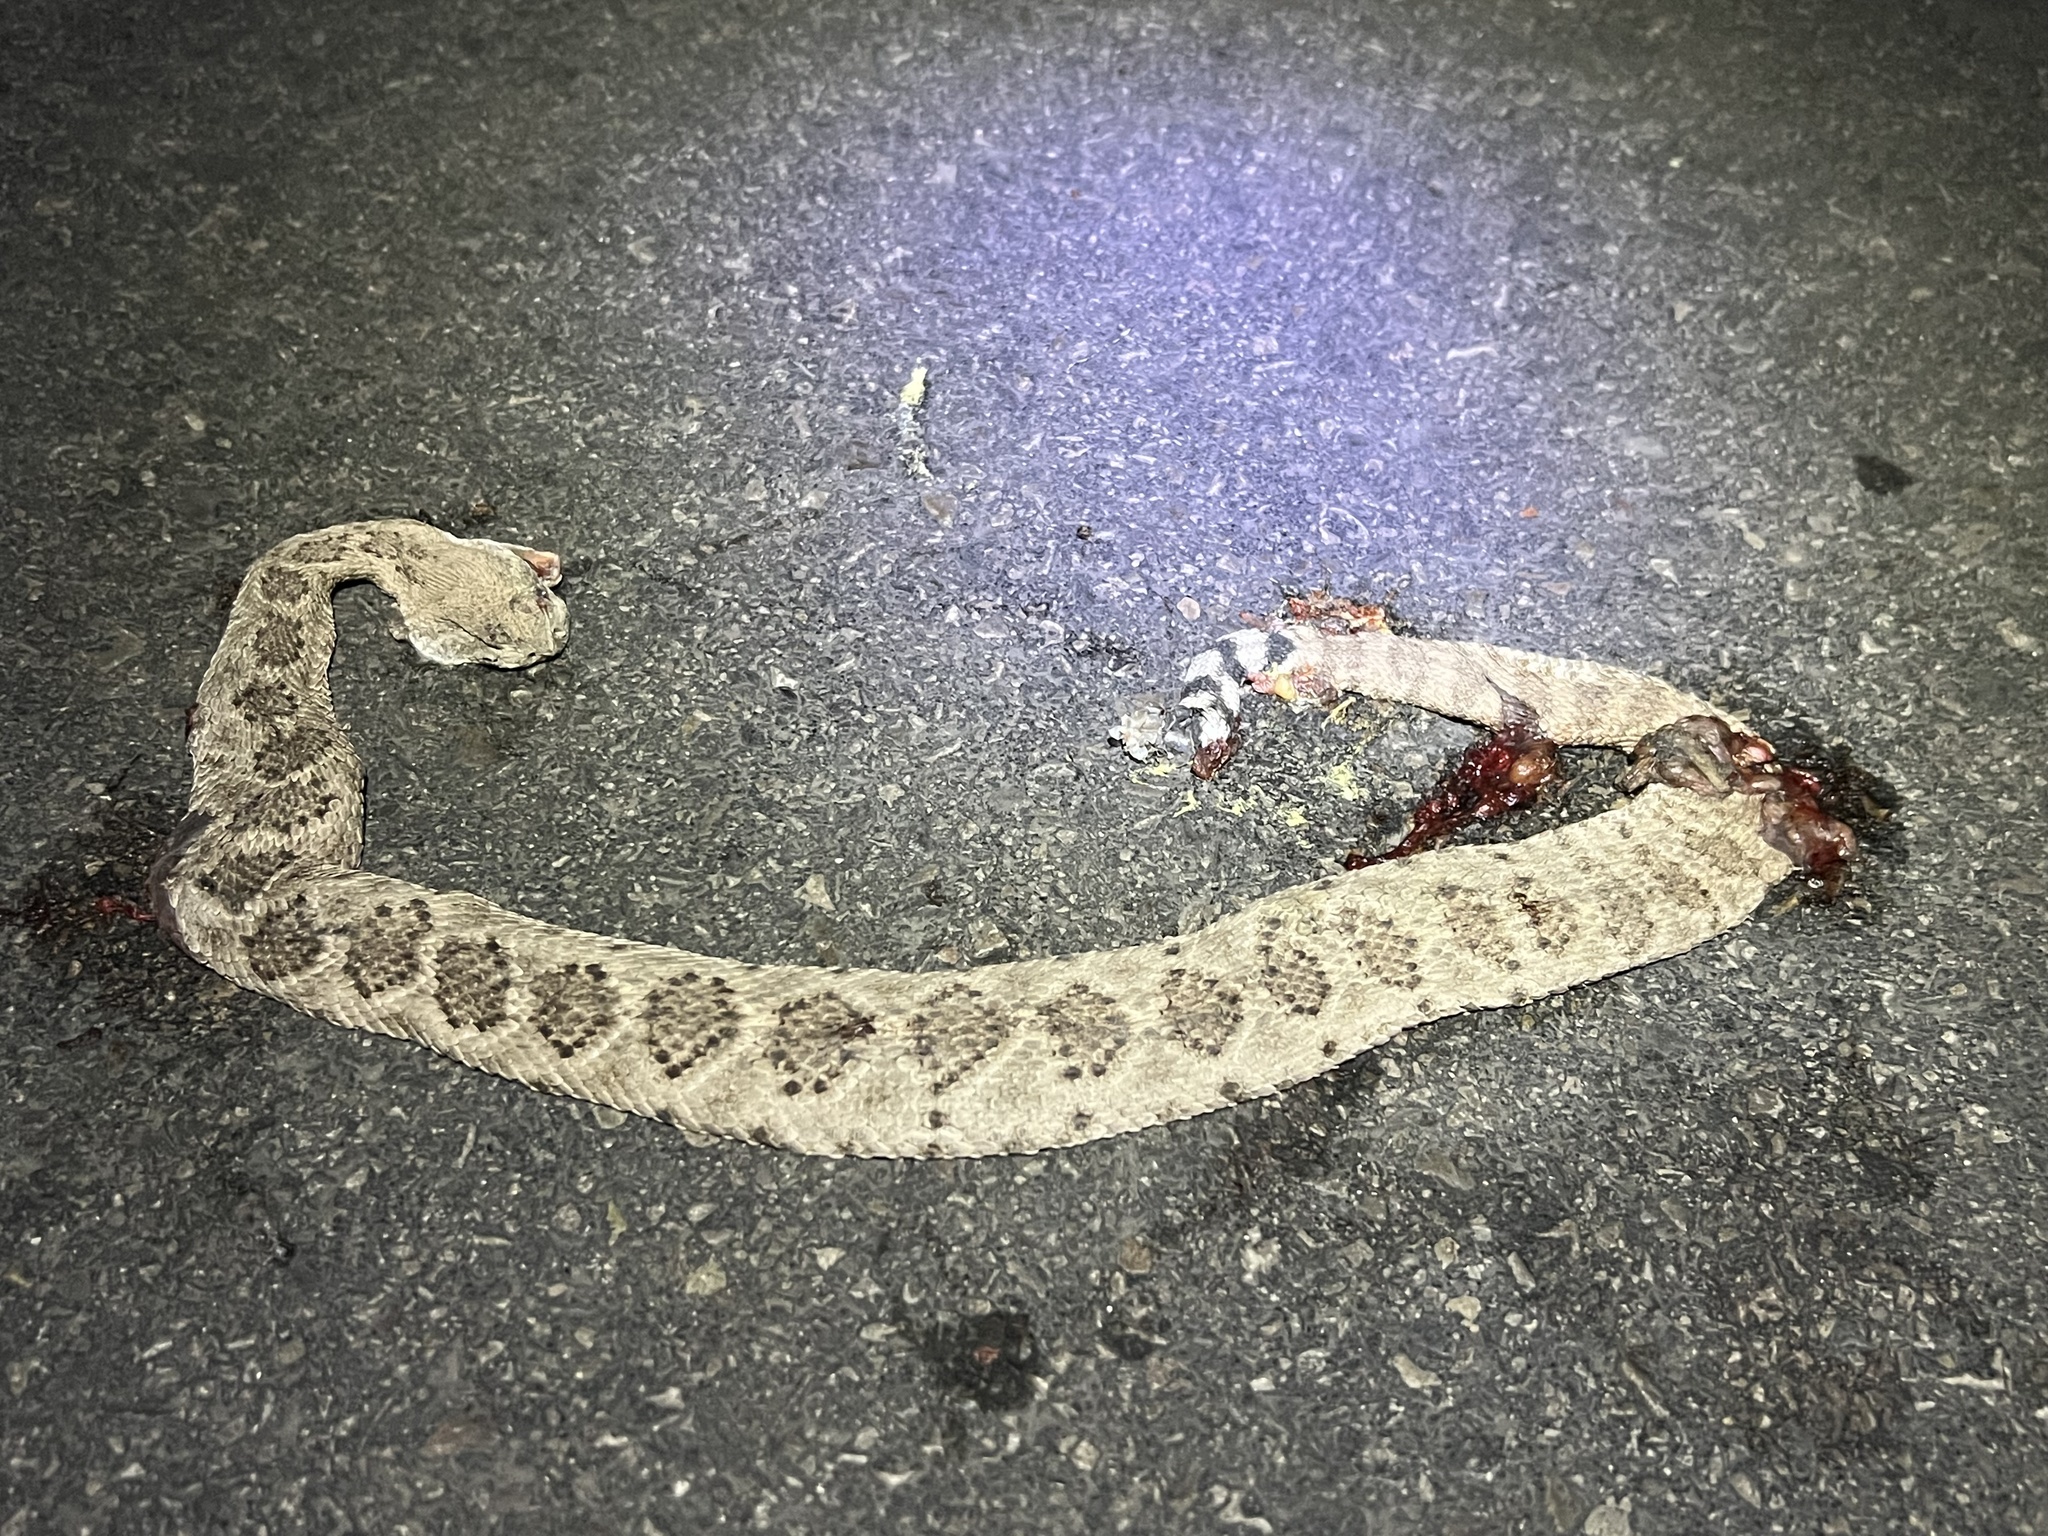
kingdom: Animalia
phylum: Chordata
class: Squamata
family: Viperidae
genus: Crotalus
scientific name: Crotalus atrox
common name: Western diamond-backed rattlesnake
